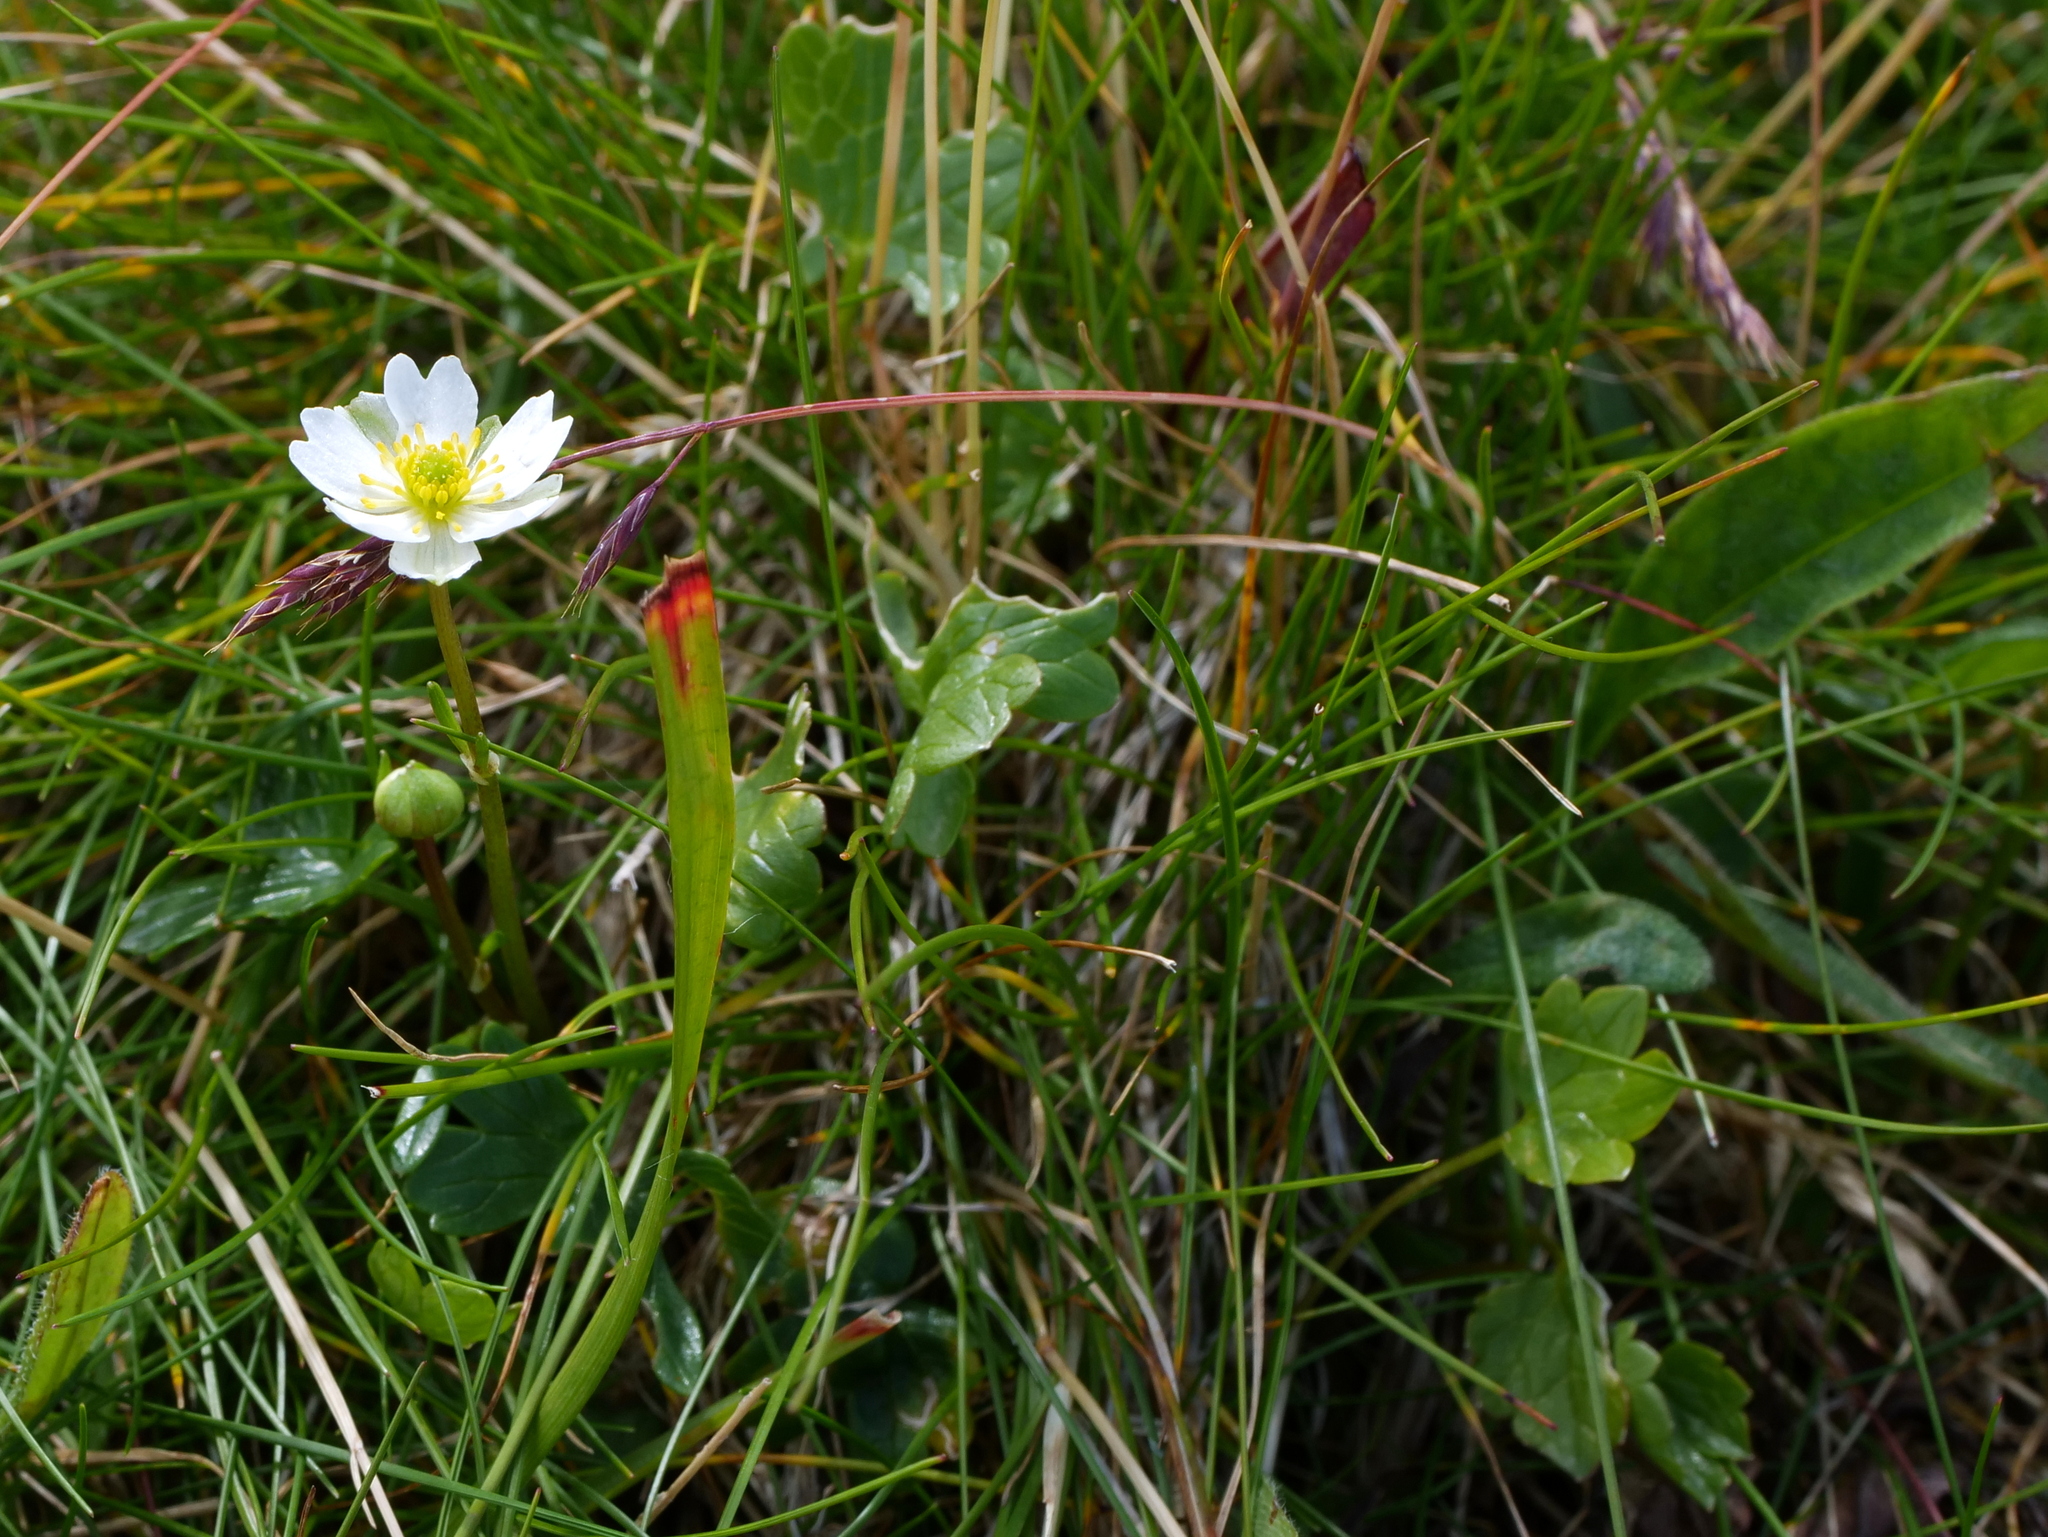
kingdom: Plantae
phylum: Tracheophyta
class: Magnoliopsida
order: Ranunculales
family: Ranunculaceae
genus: Ranunculus
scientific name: Ranunculus alpestris
